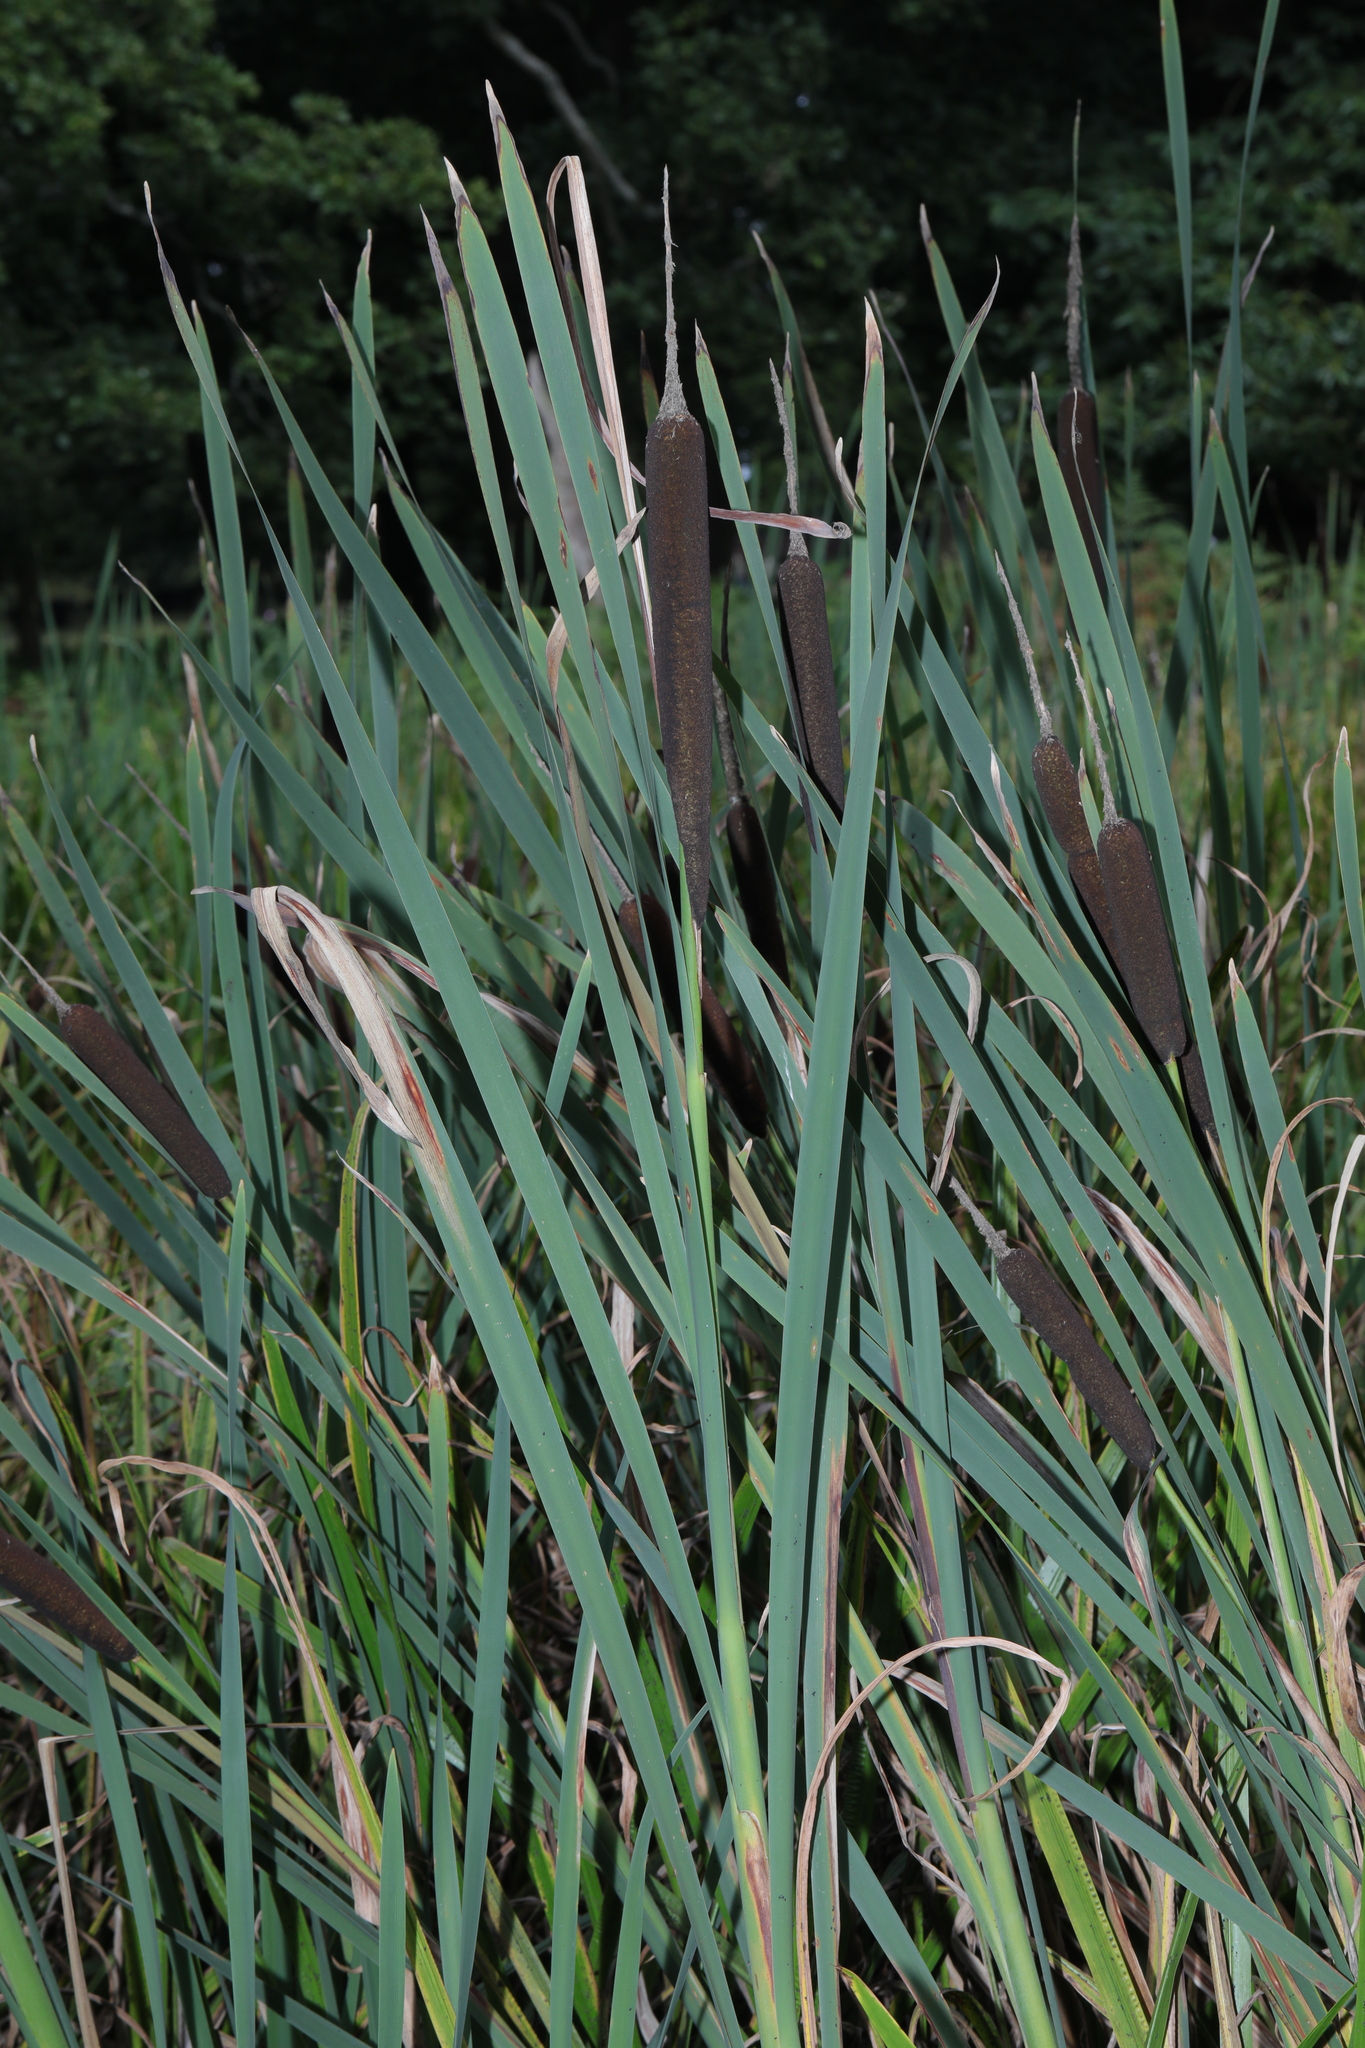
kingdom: Plantae
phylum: Tracheophyta
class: Liliopsida
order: Poales
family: Typhaceae
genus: Typha
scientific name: Typha latifolia
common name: Broadleaf cattail
